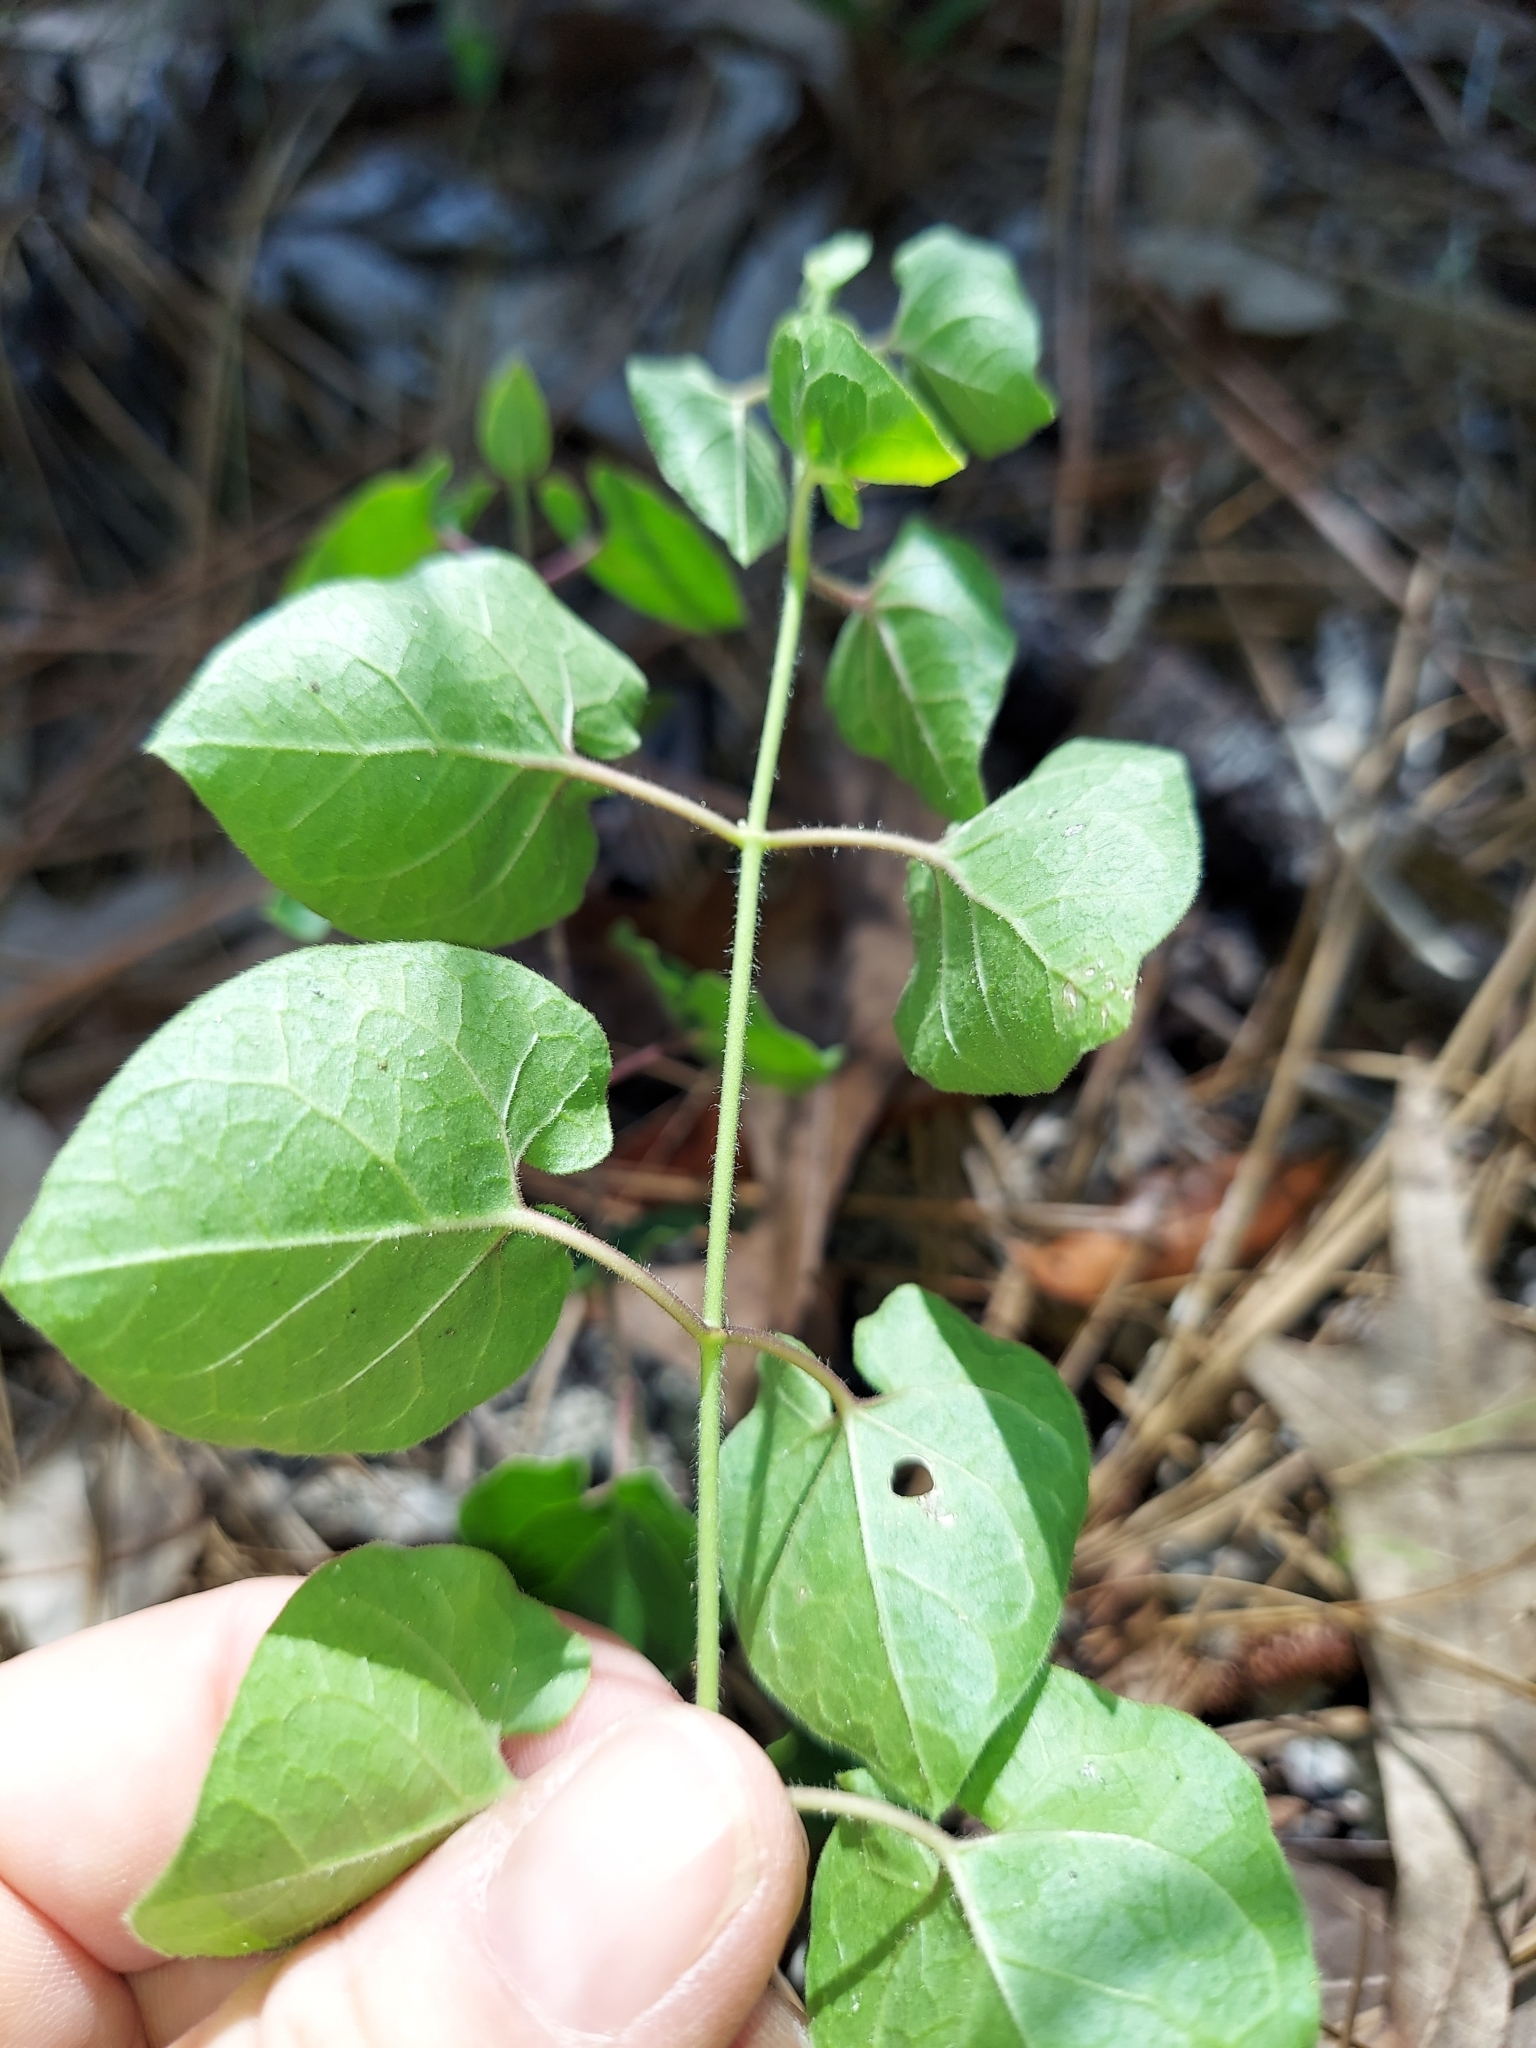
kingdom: Plantae
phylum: Tracheophyta
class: Magnoliopsida
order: Gentianales
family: Apocynaceae
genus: Chthamalia
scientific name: Chthamalia pubiflora
